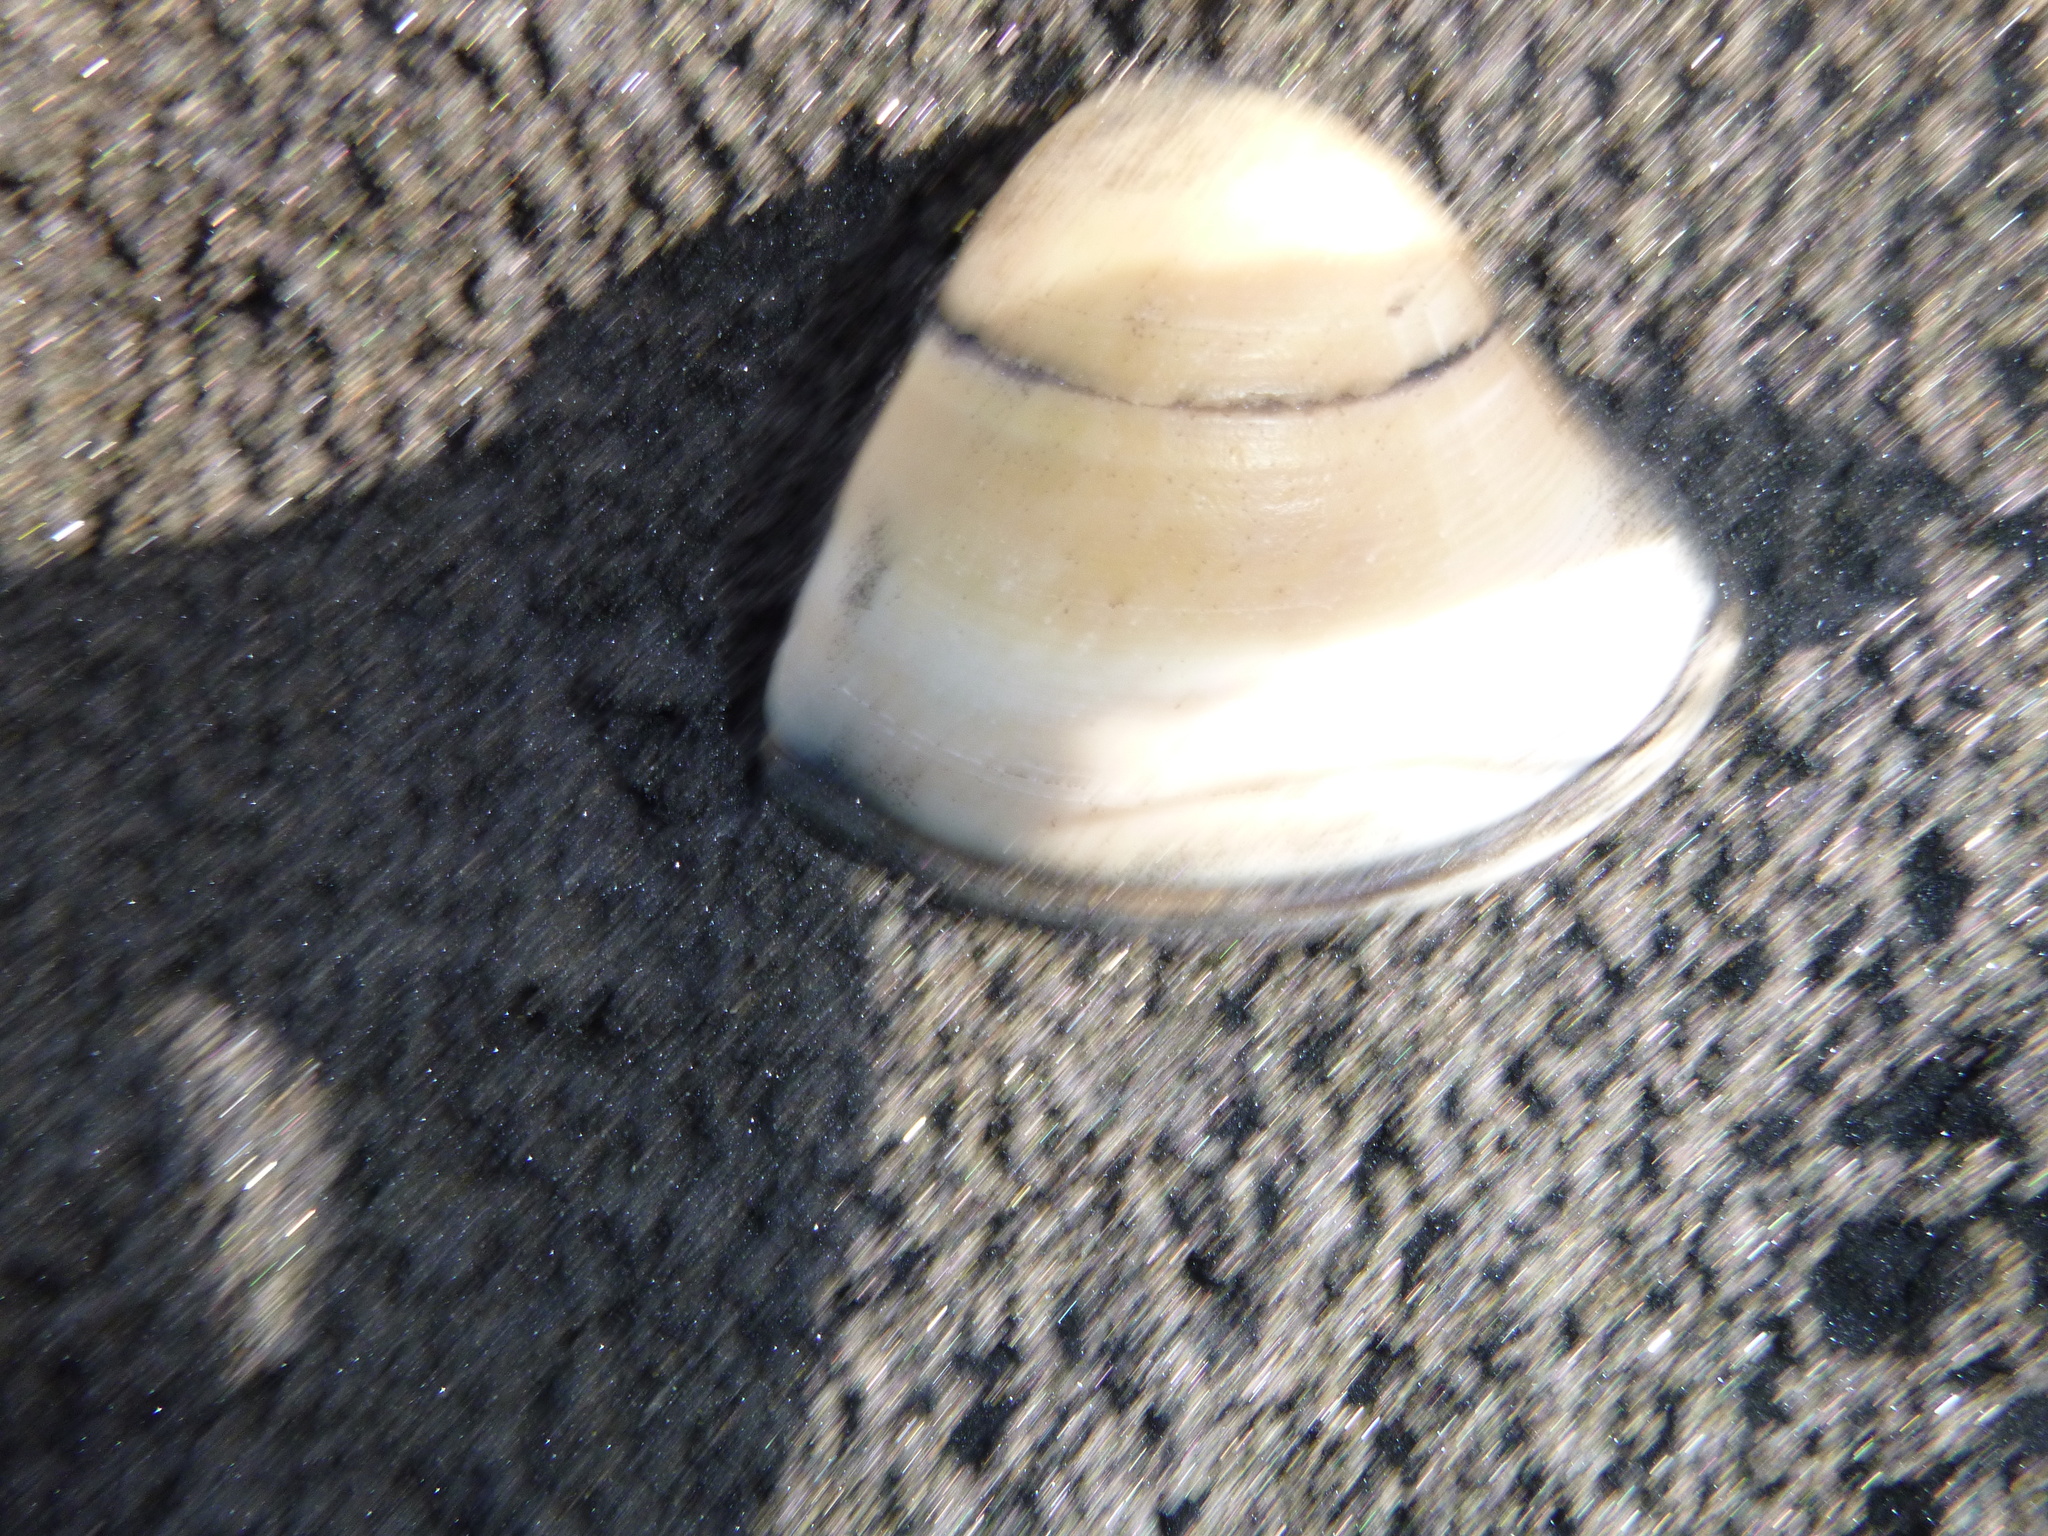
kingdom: Animalia
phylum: Mollusca
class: Bivalvia
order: Venerida
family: Mactridae
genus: Crassula
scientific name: Crassula aequilatera
